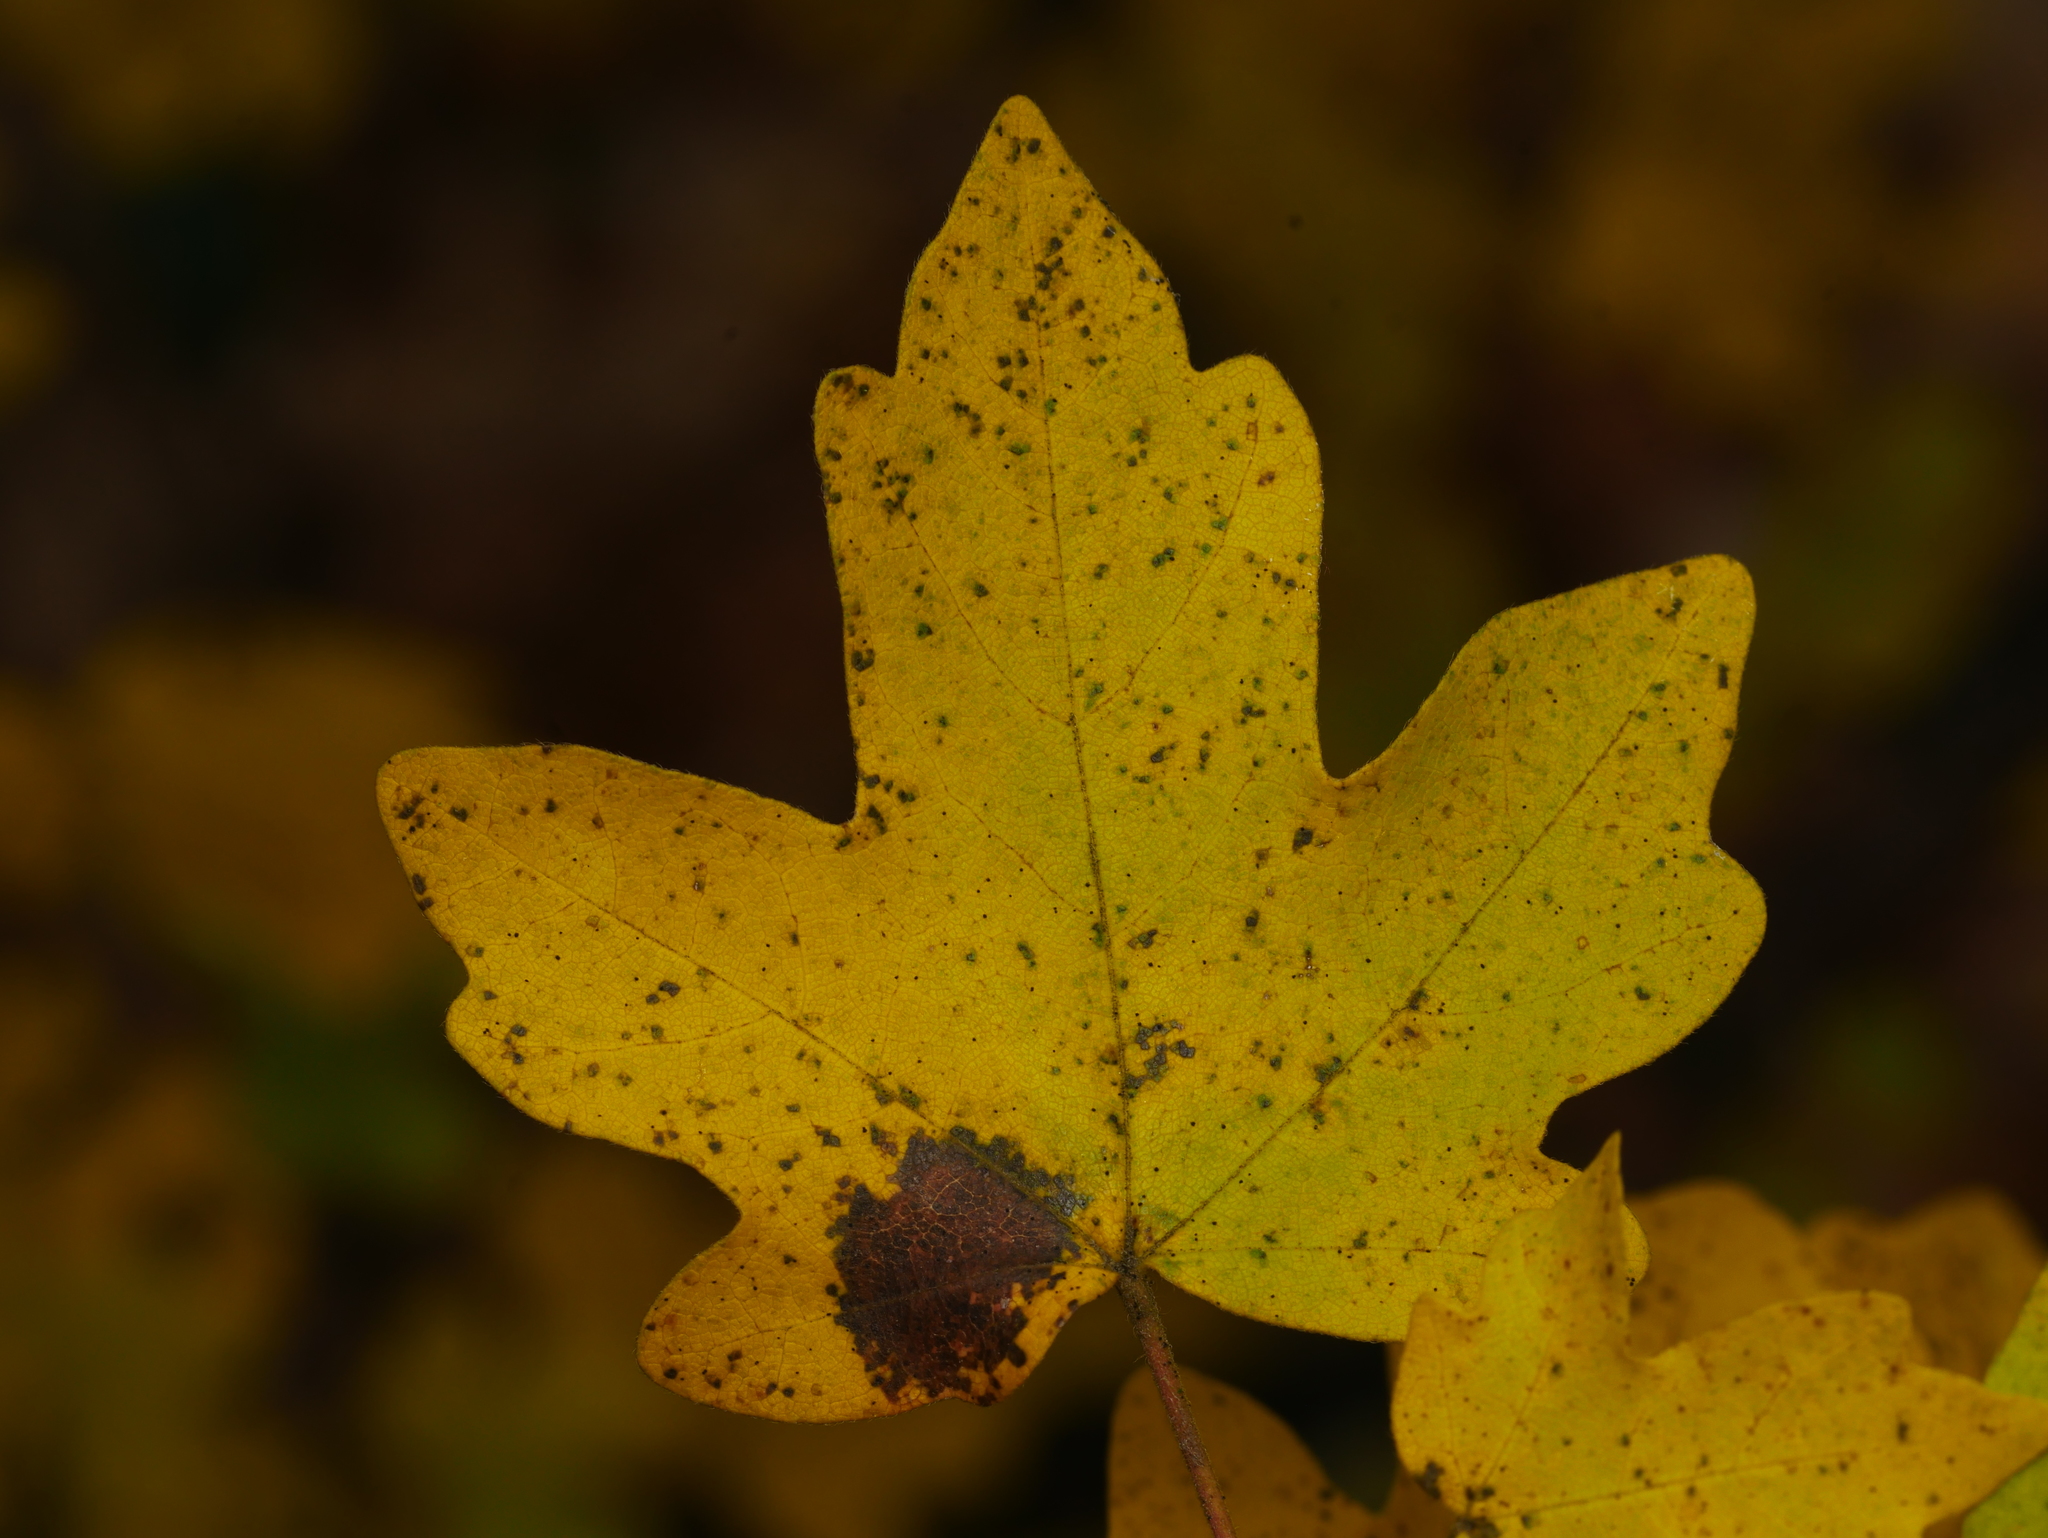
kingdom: Plantae
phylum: Tracheophyta
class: Magnoliopsida
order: Sapindales
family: Sapindaceae
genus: Acer
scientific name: Acer campestre
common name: Field maple
